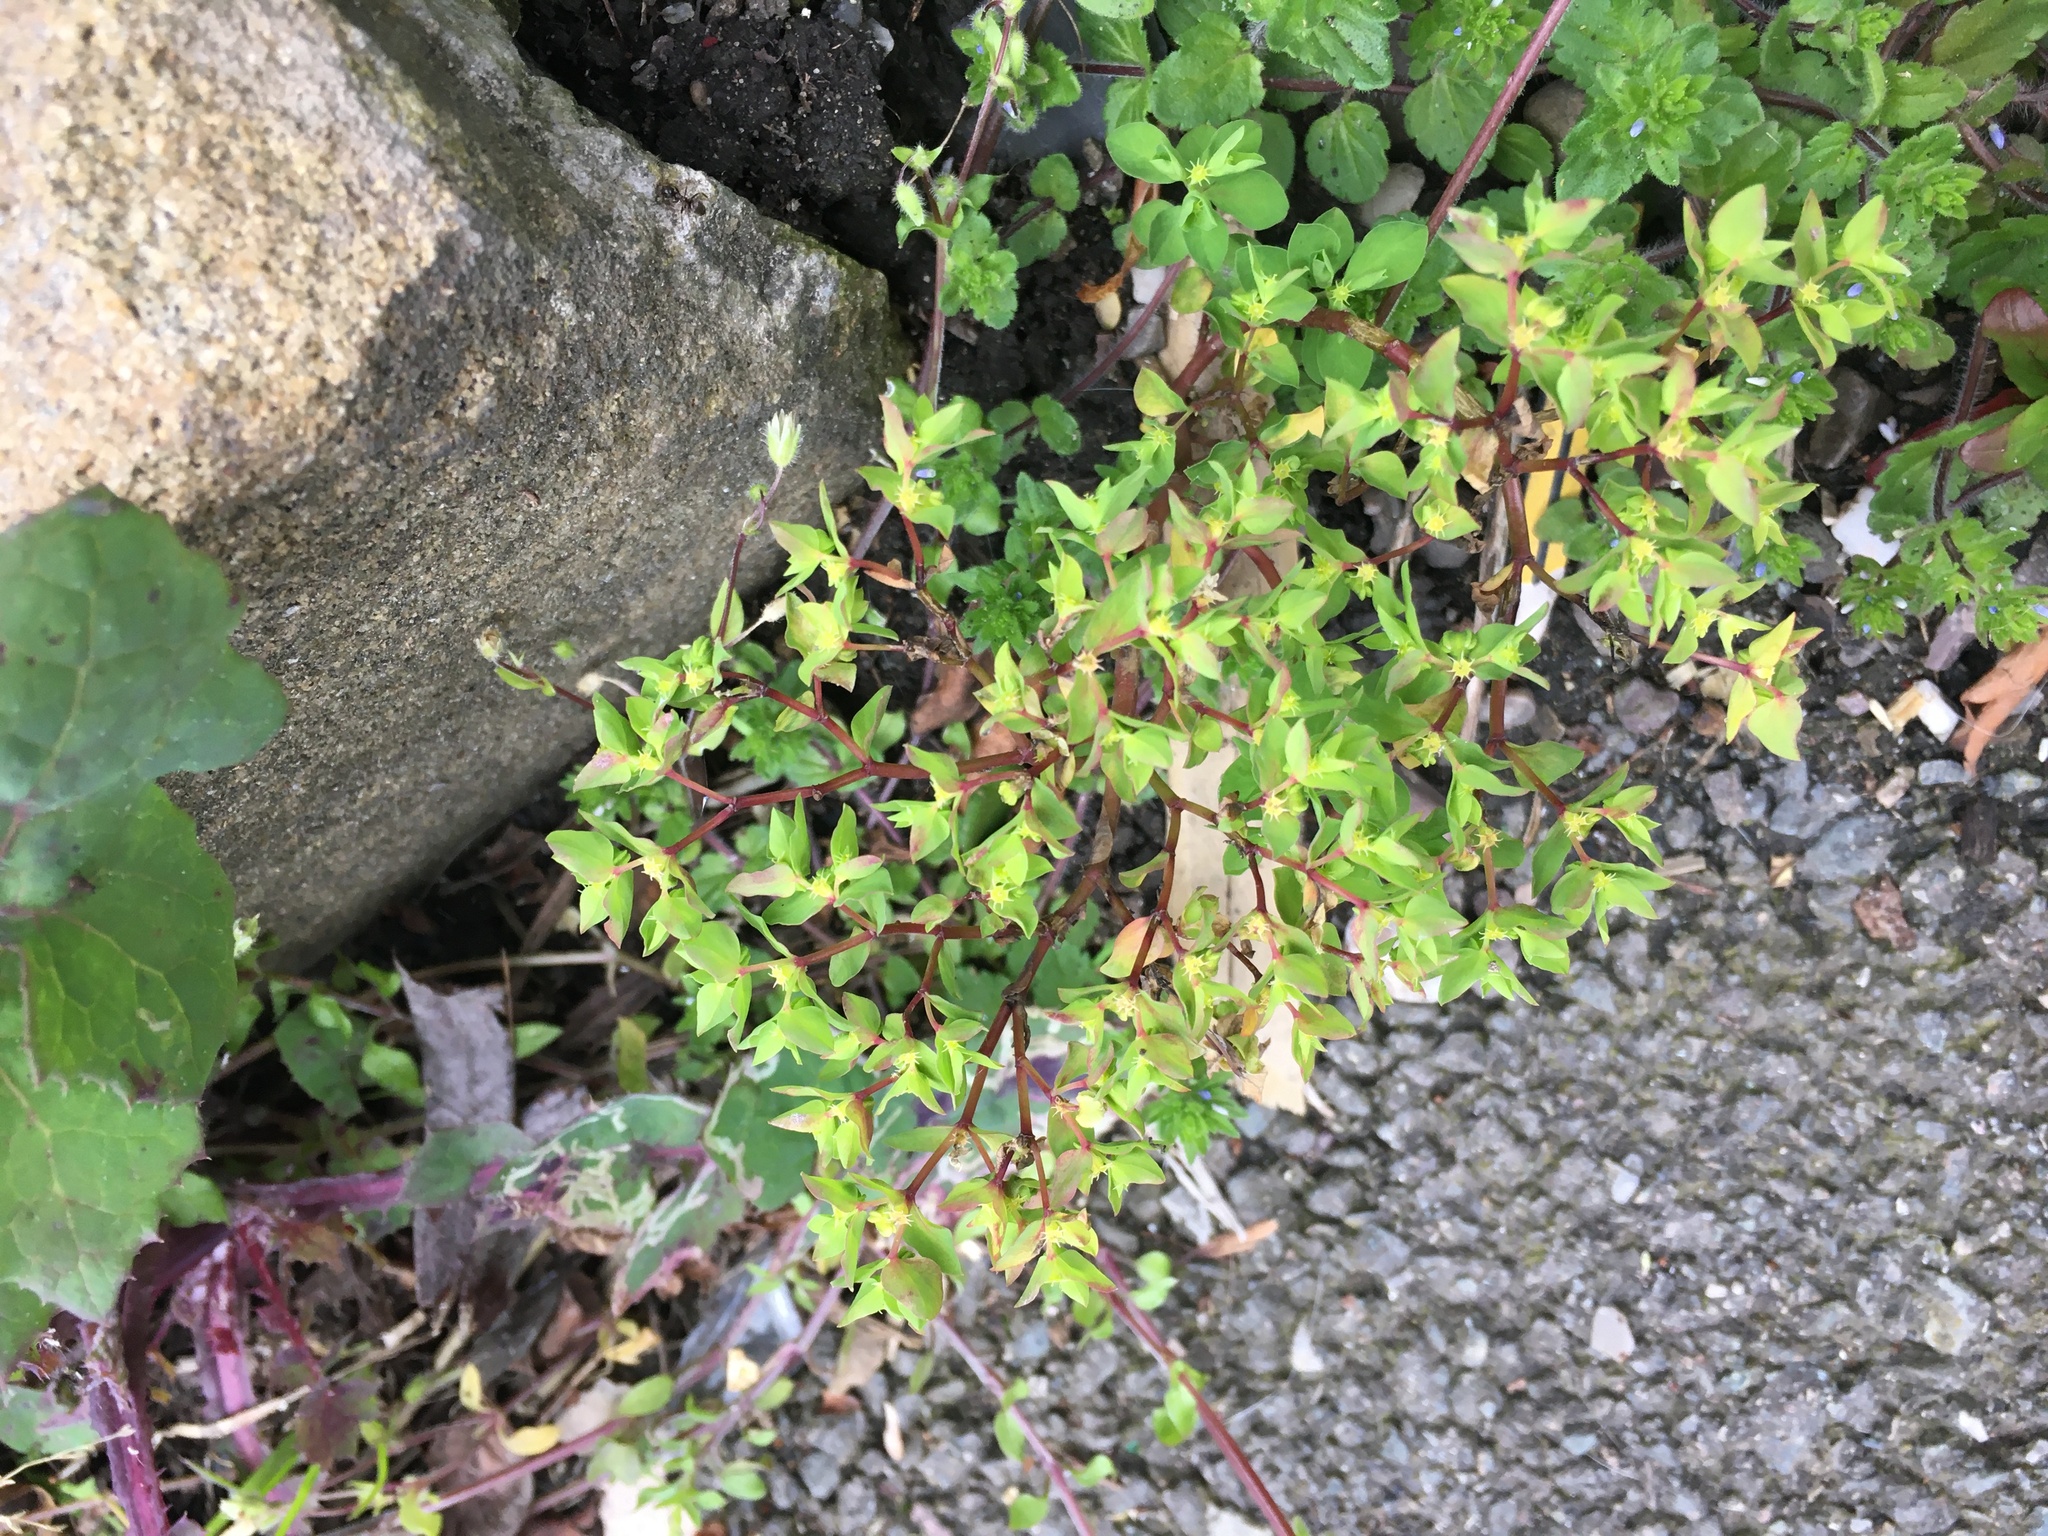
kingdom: Plantae
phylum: Tracheophyta
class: Magnoliopsida
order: Malpighiales
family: Euphorbiaceae
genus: Euphorbia
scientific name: Euphorbia peplus
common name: Petty spurge
